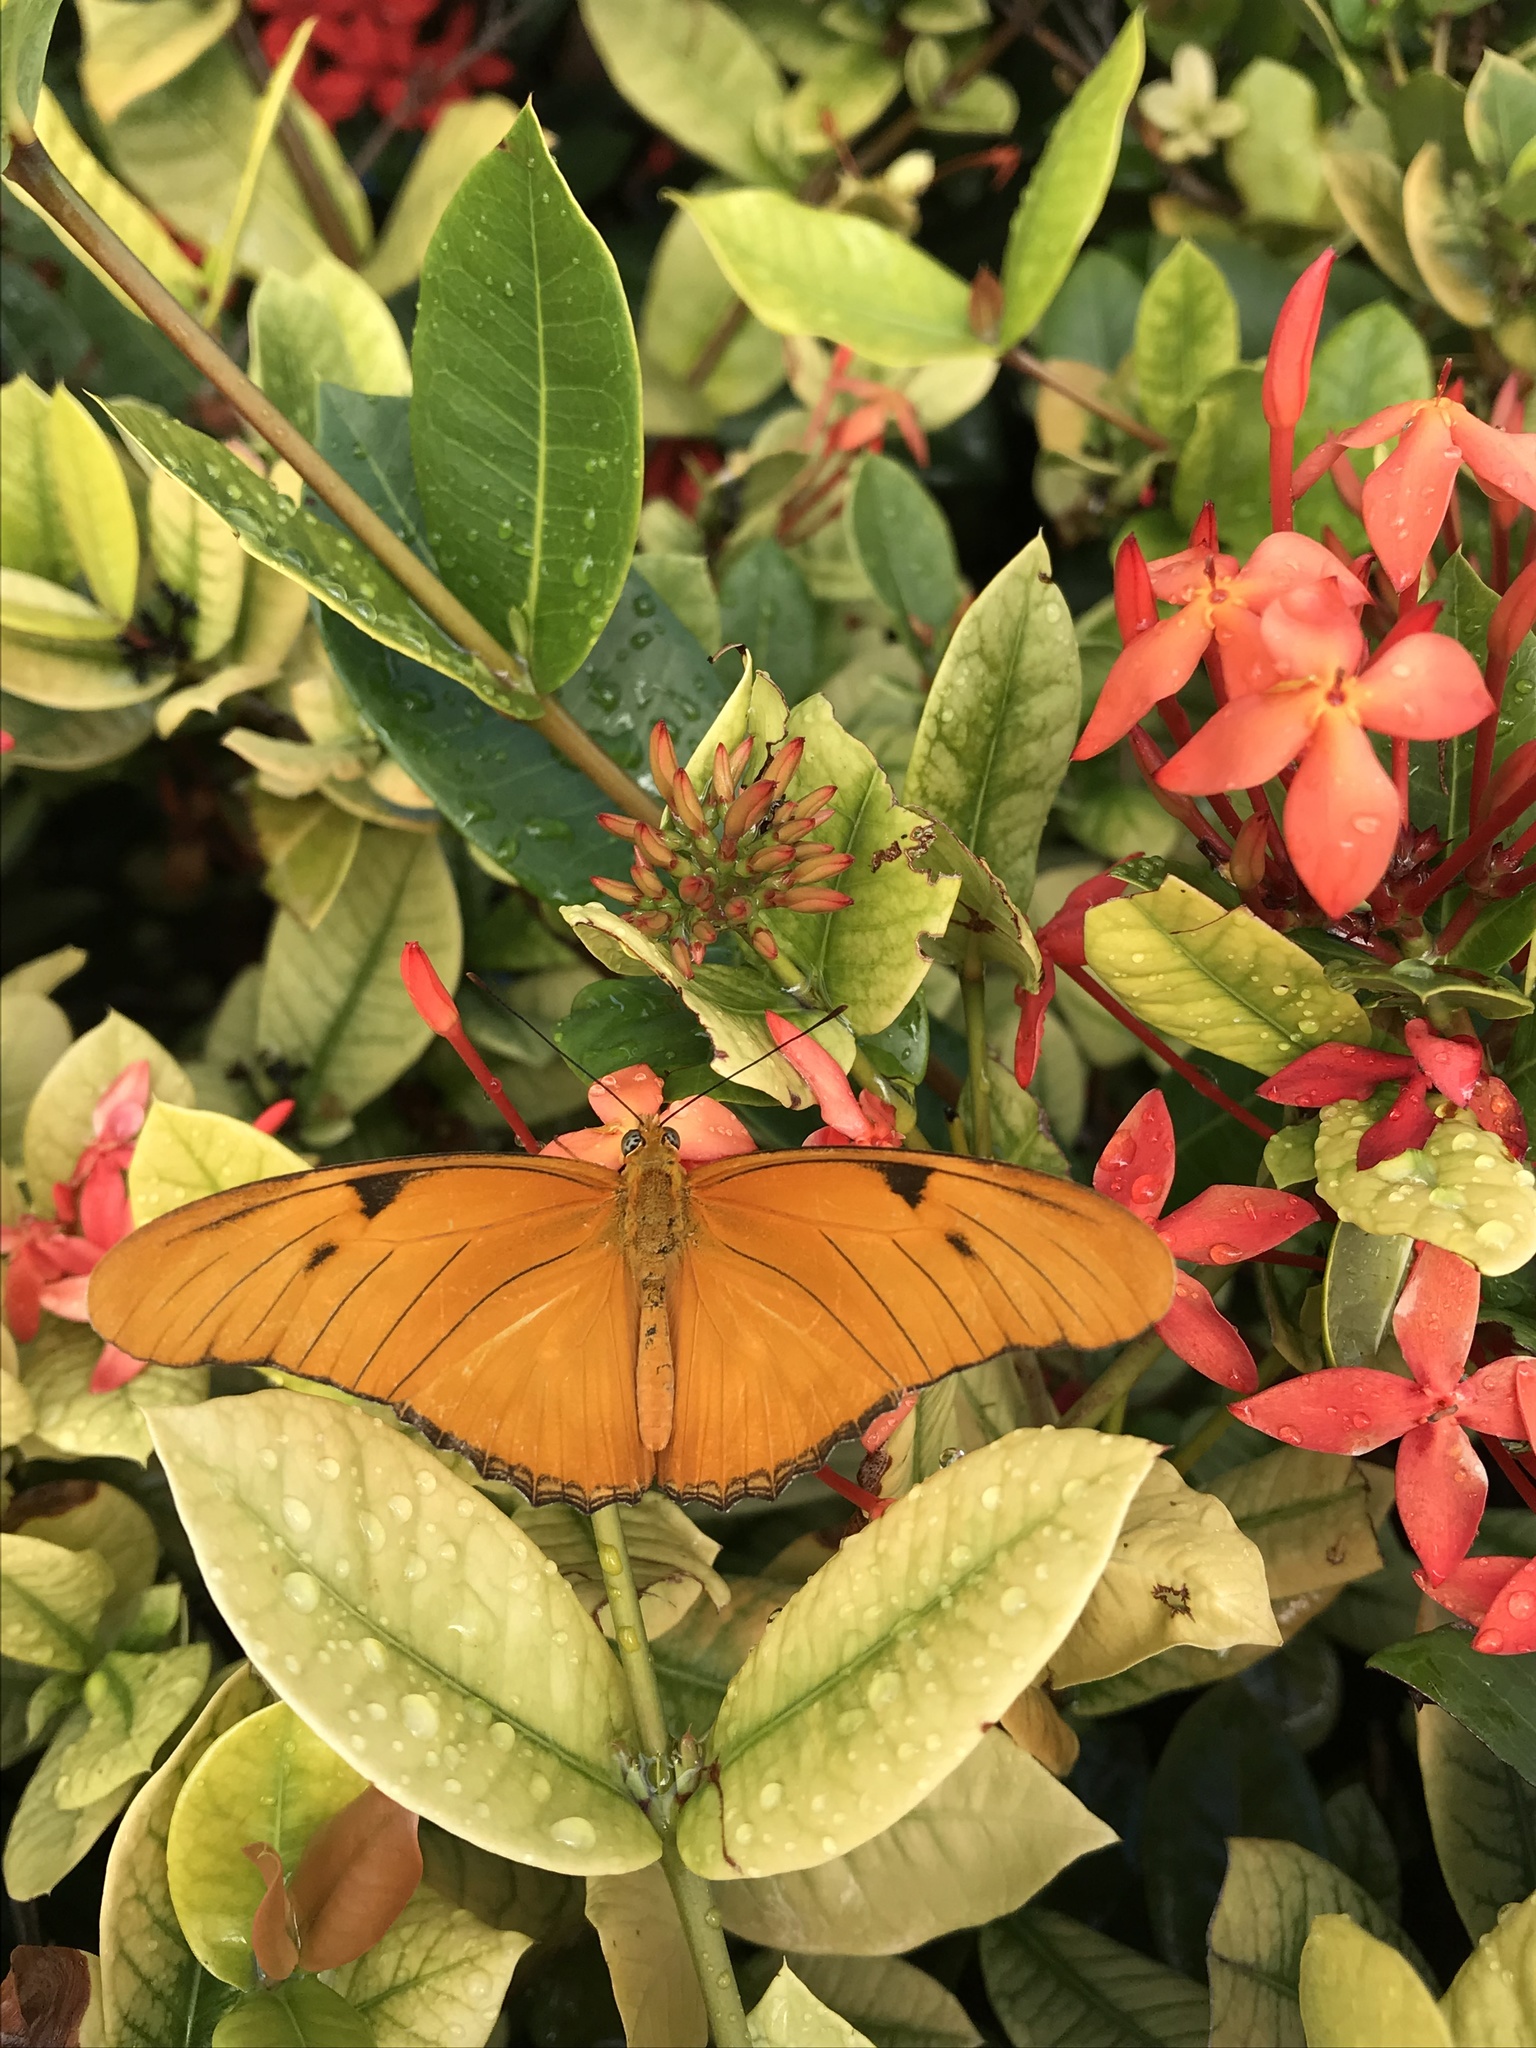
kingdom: Animalia
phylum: Arthropoda
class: Insecta
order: Lepidoptera
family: Nymphalidae
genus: Dryas
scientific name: Dryas iulia
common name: Flambeau
